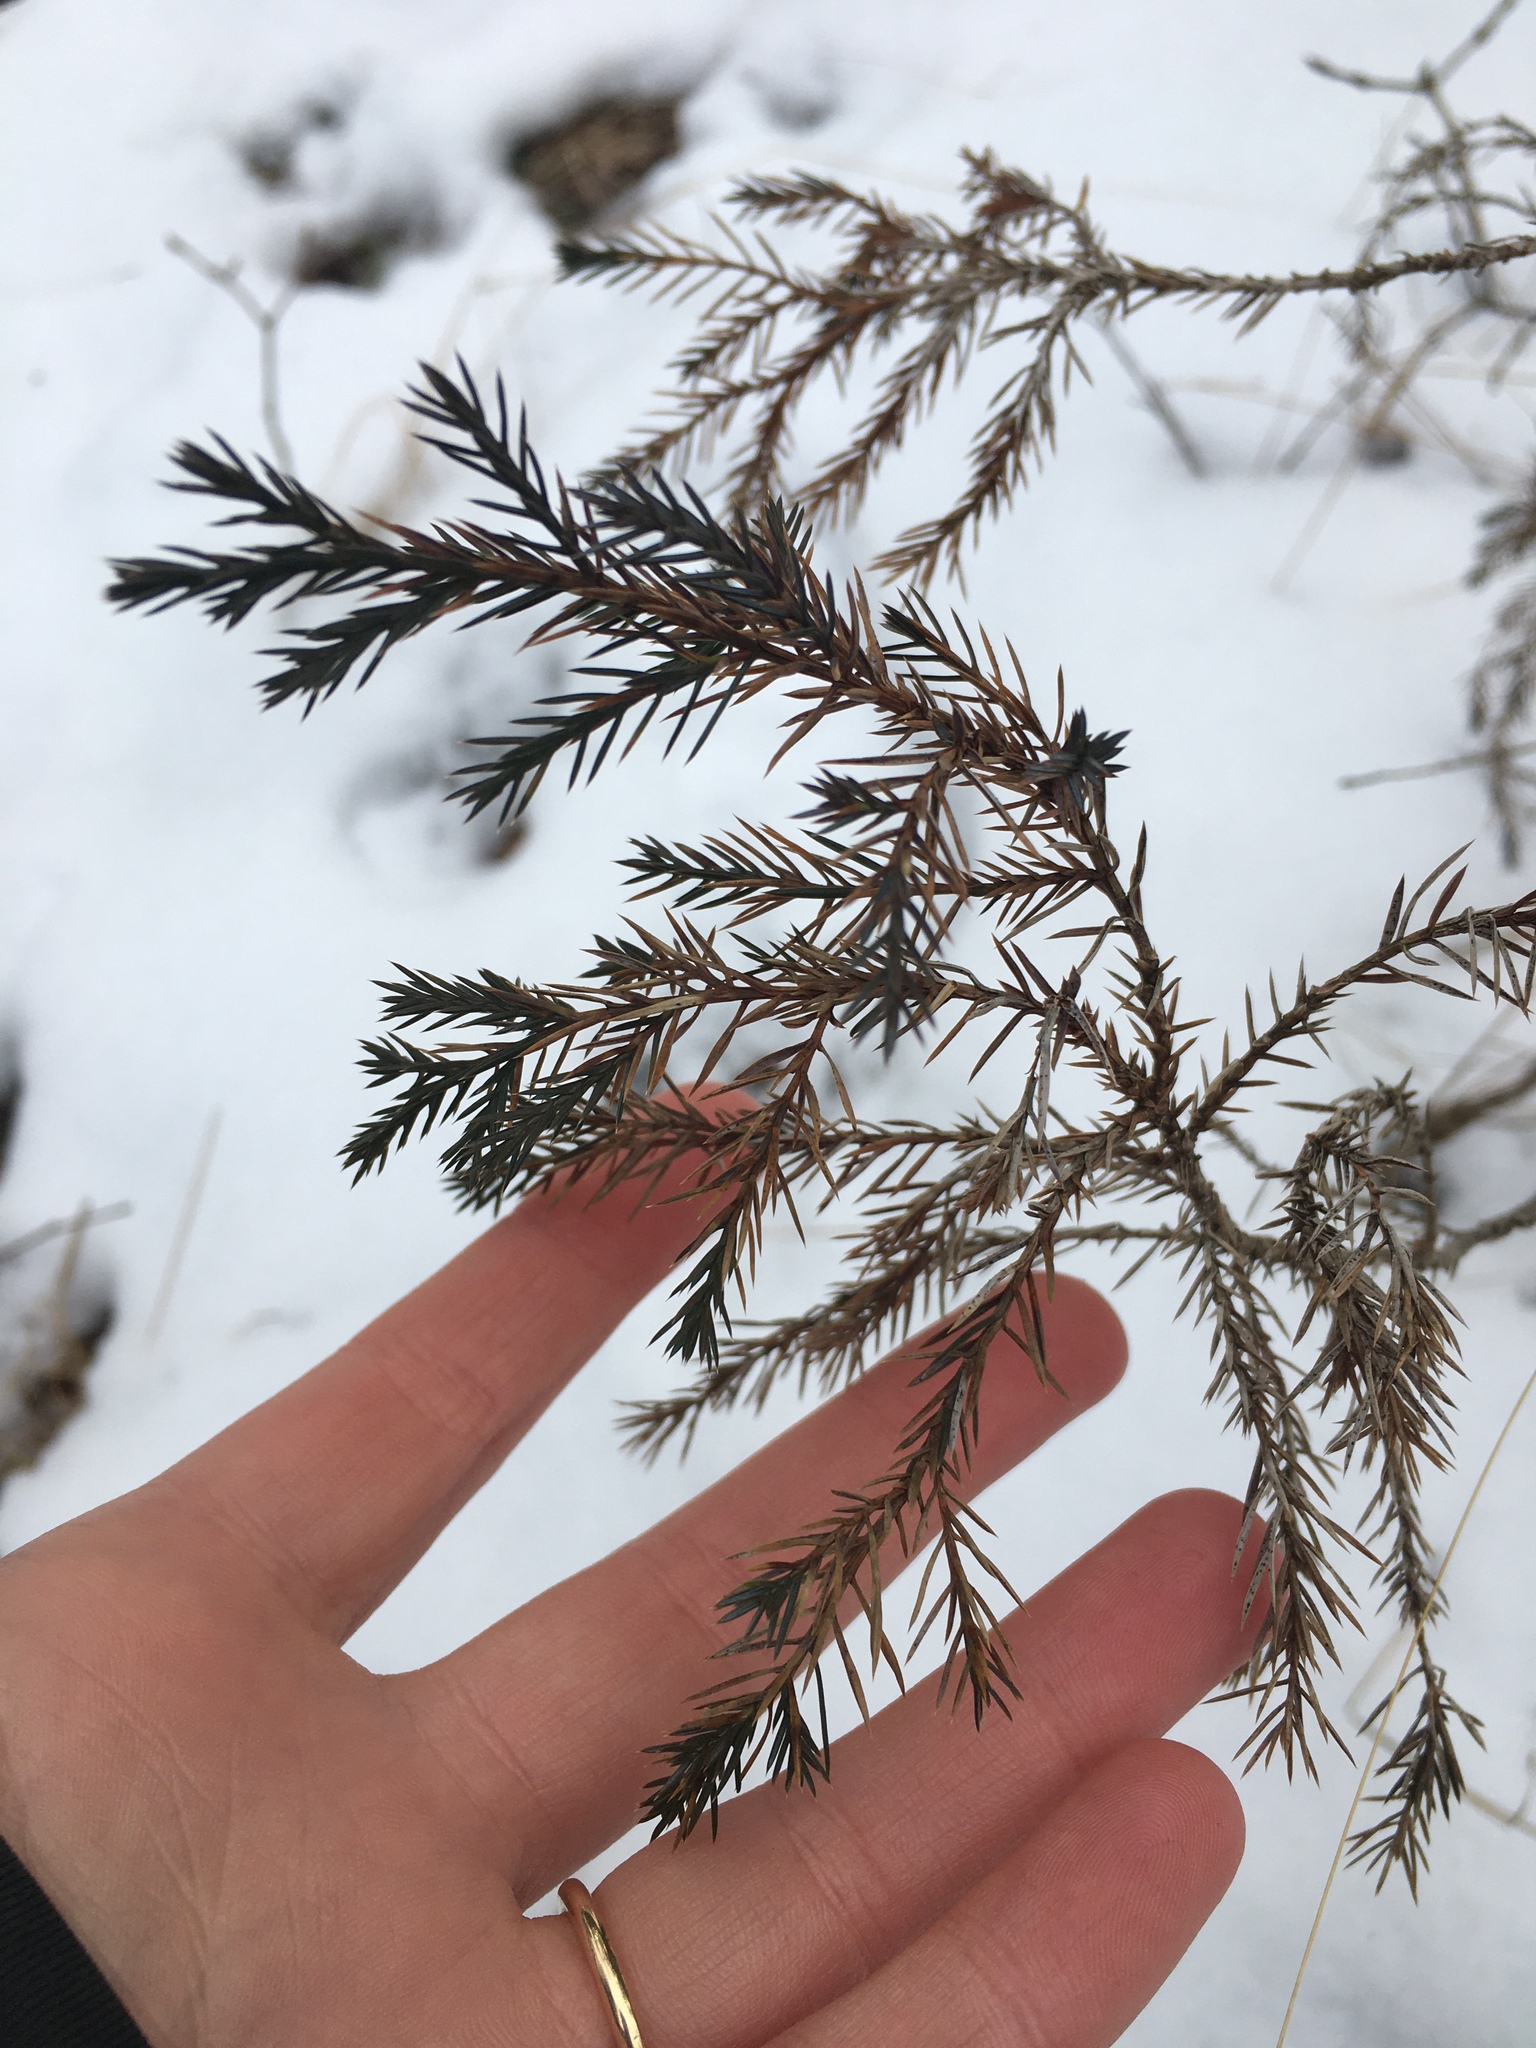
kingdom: Plantae
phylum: Tracheophyta
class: Pinopsida
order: Pinales
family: Cupressaceae
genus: Juniperus
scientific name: Juniperus virginiana
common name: Red juniper
